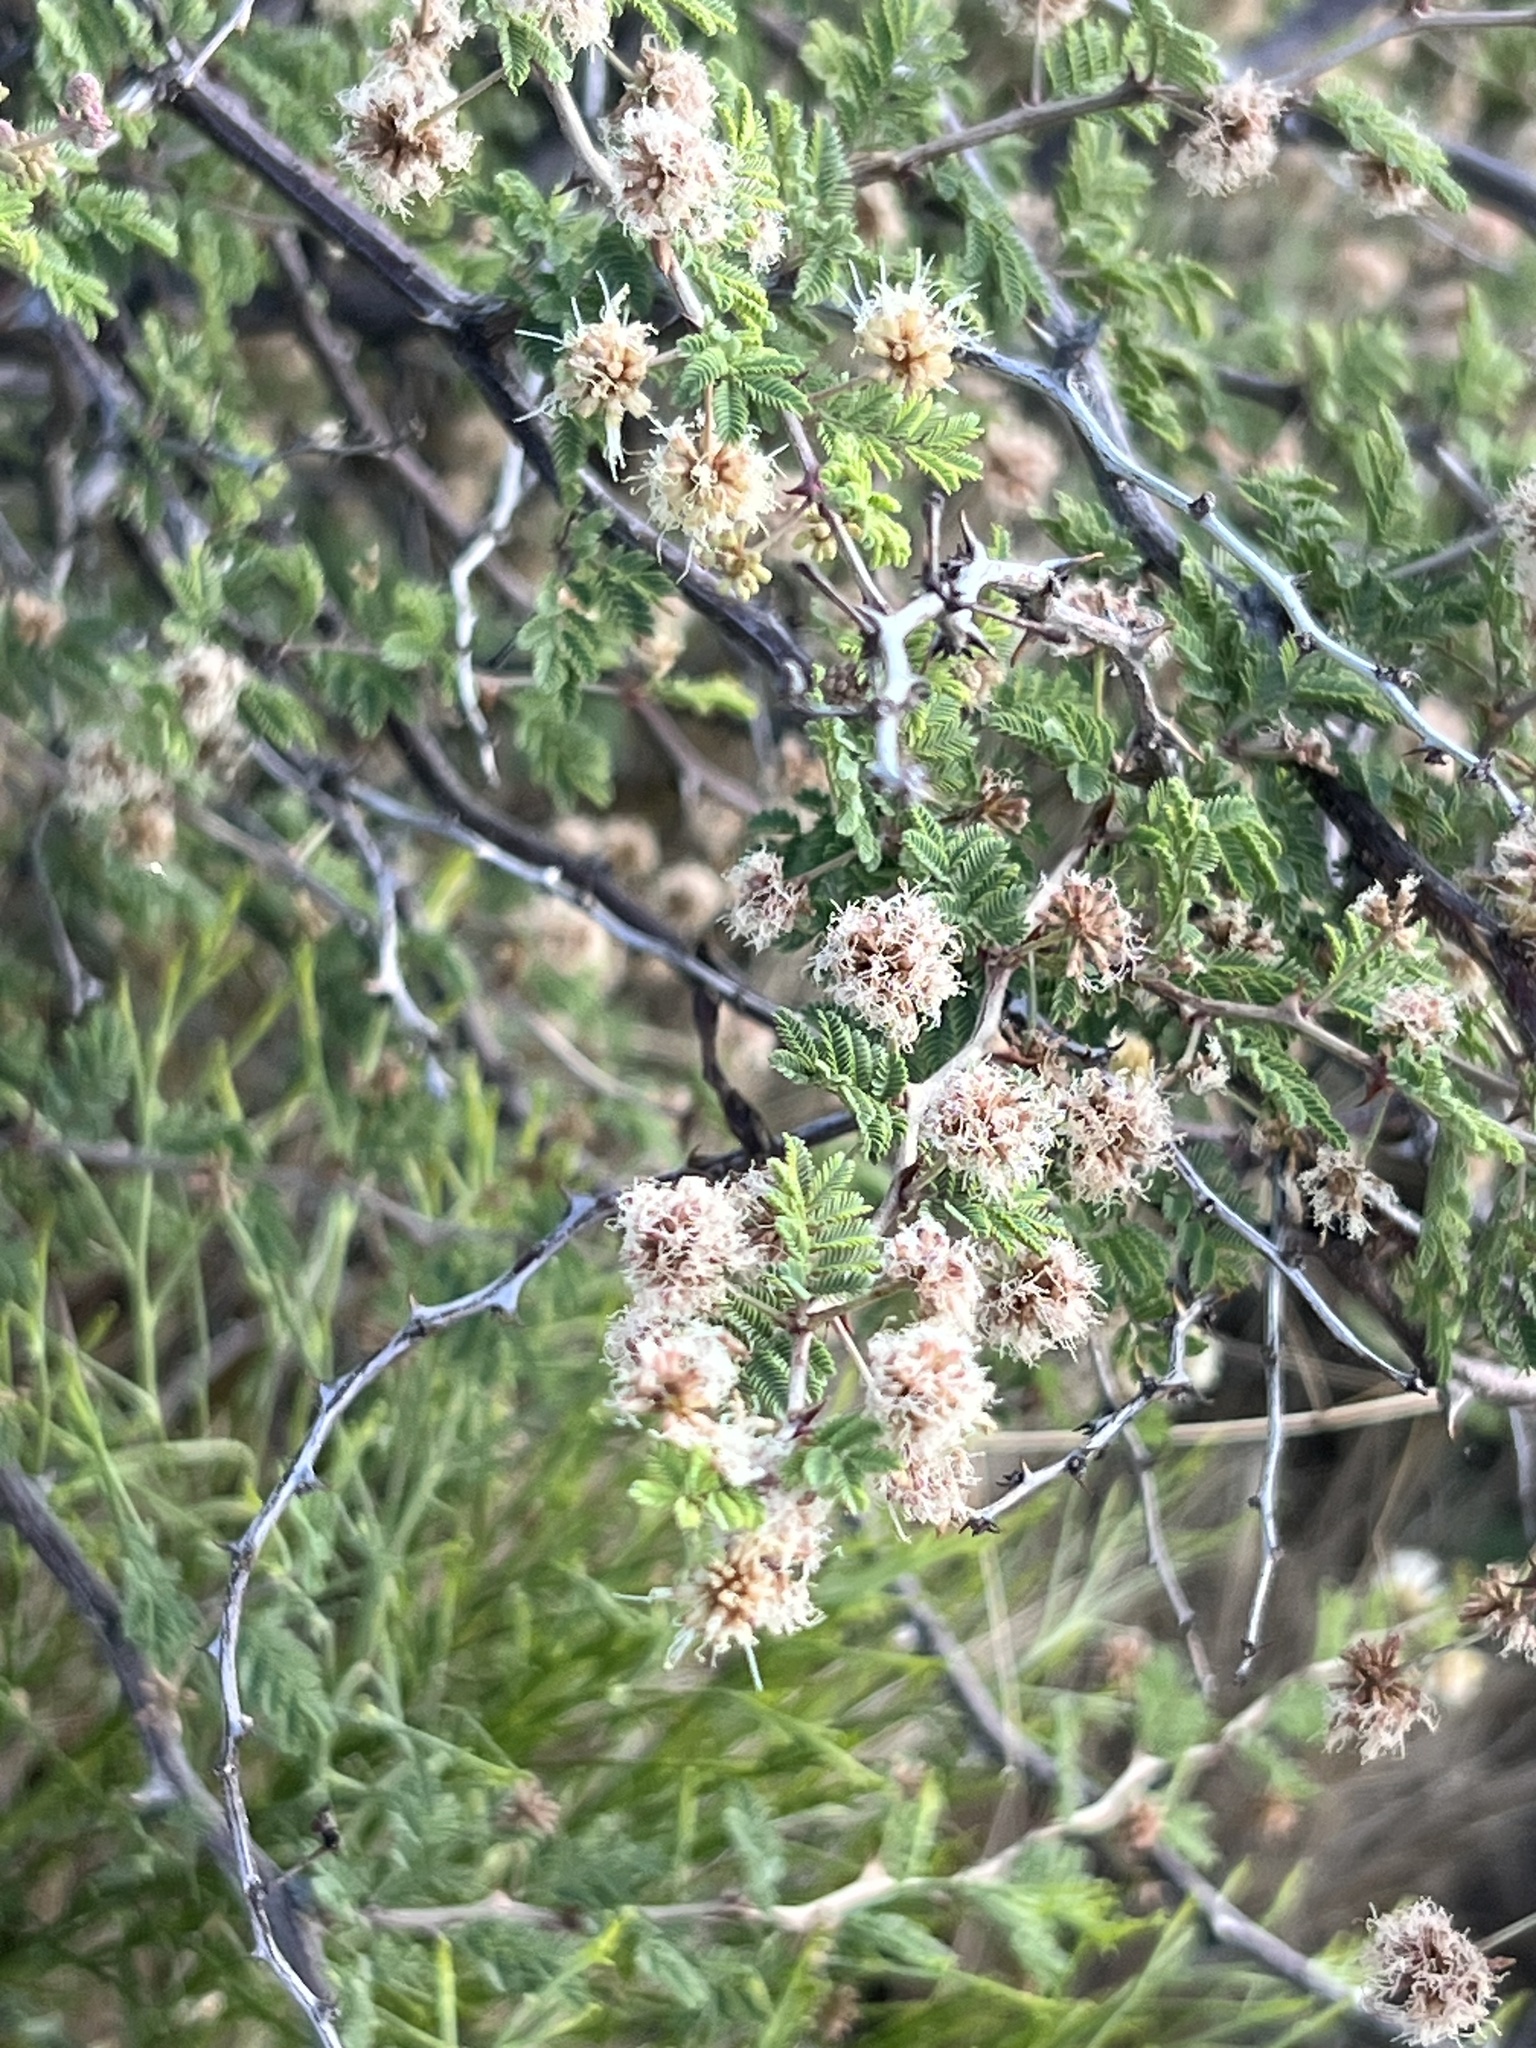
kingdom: Plantae
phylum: Tracheophyta
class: Magnoliopsida
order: Fabales
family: Fabaceae
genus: Mimosa
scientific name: Mimosa aculeaticarpa
